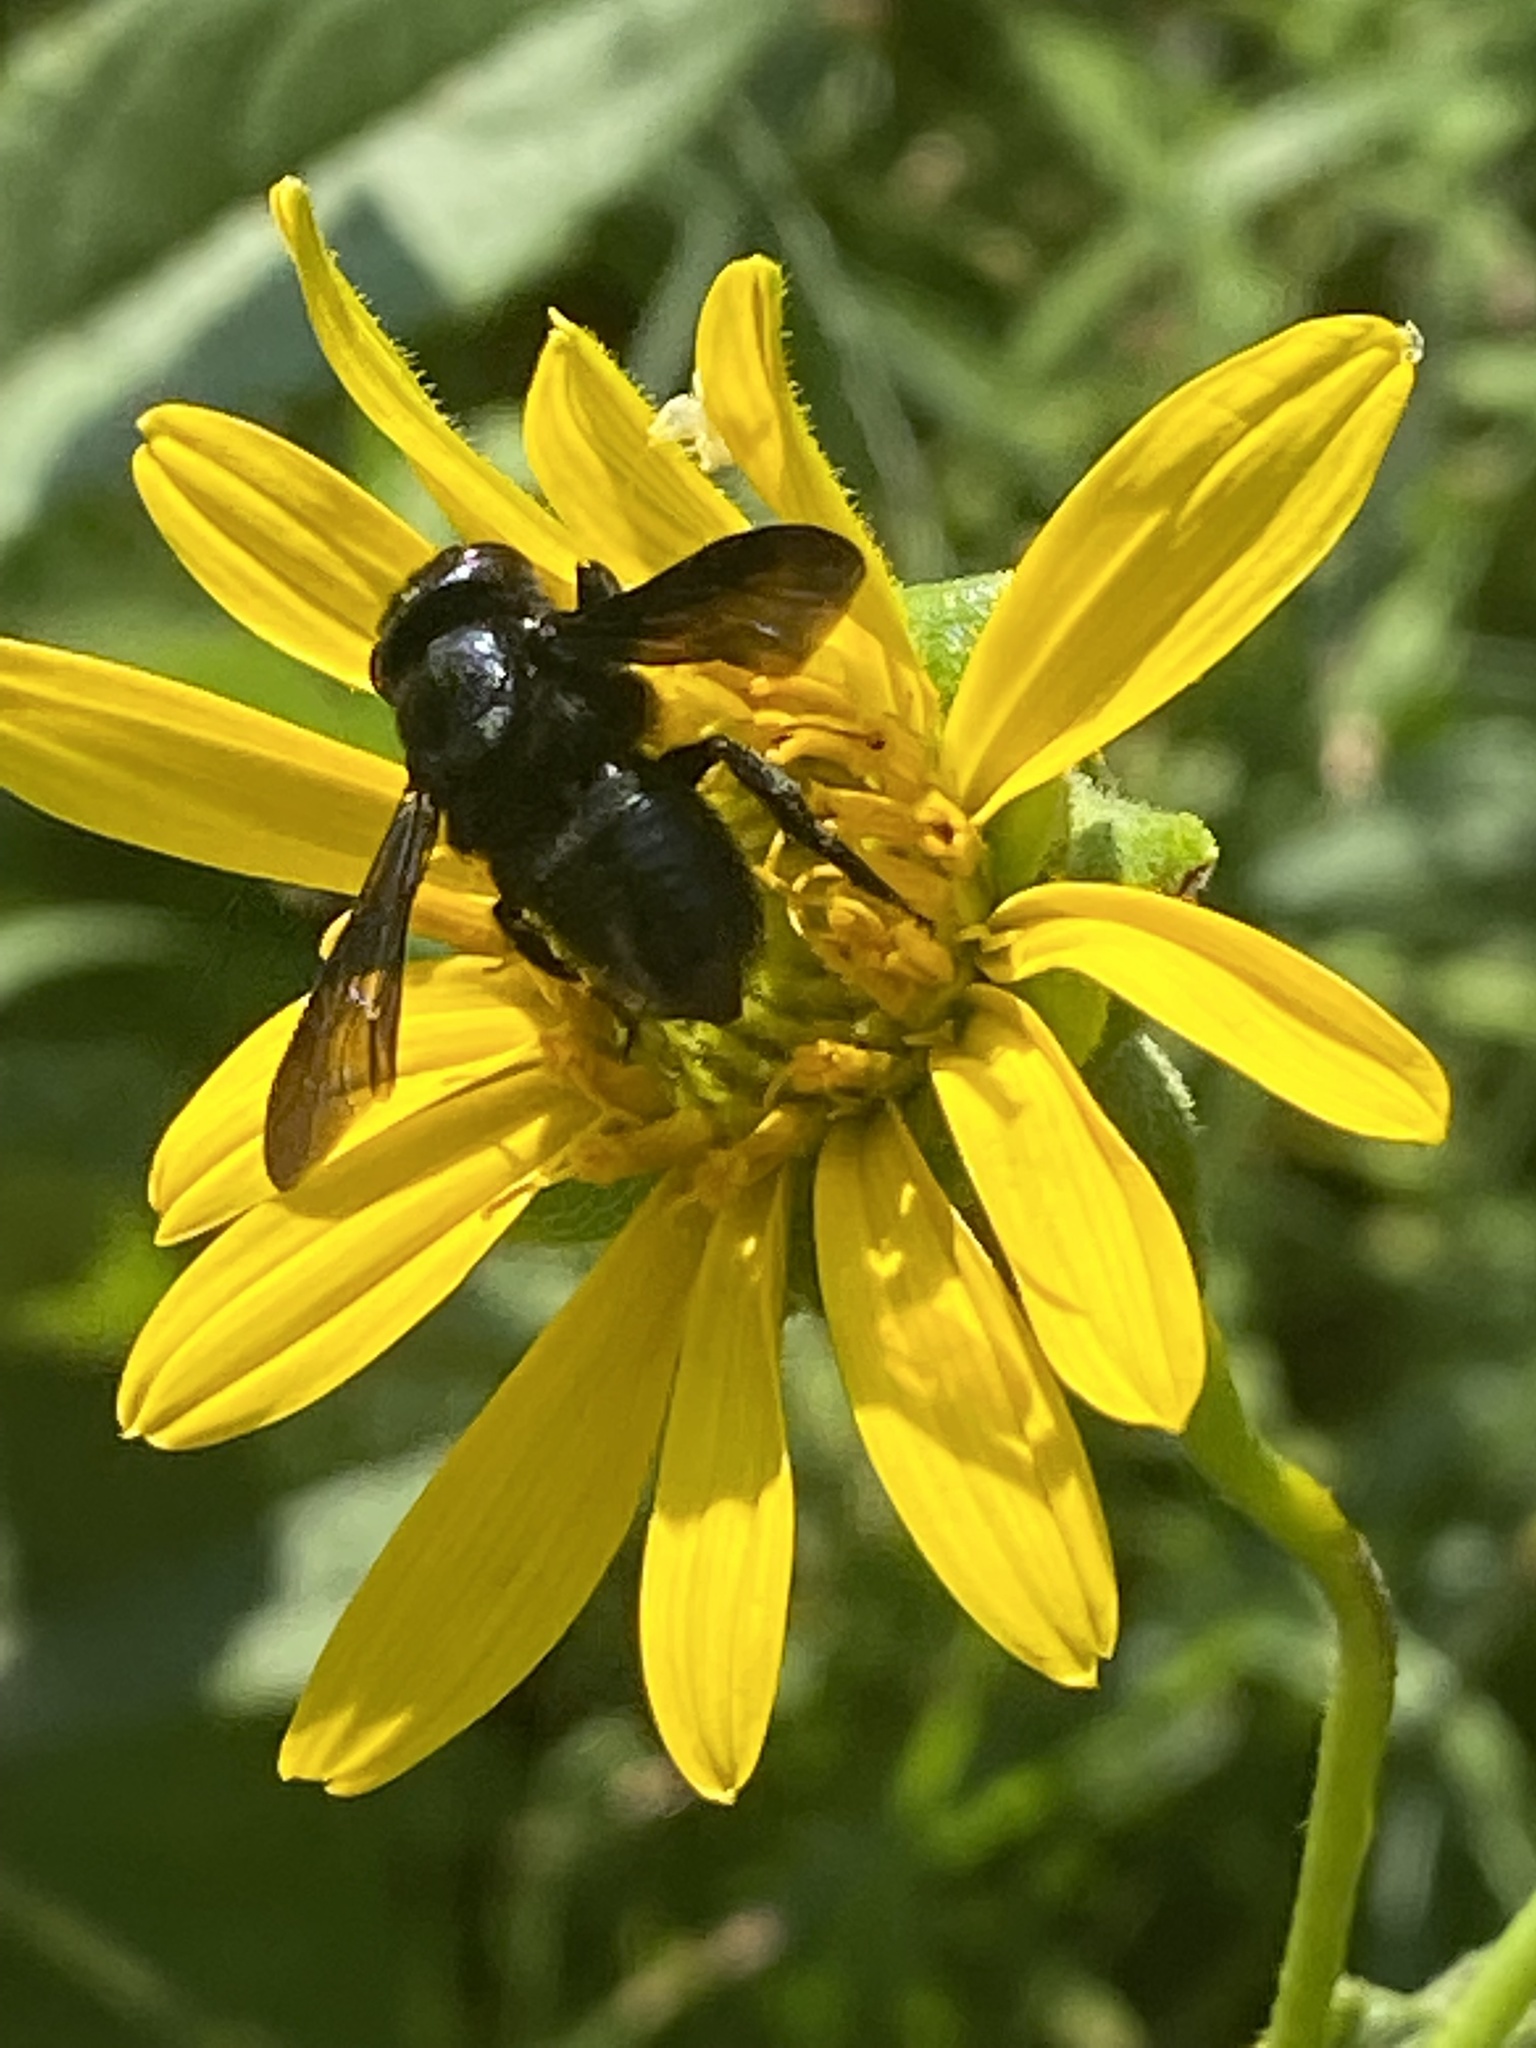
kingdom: Animalia
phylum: Arthropoda
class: Insecta
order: Hymenoptera
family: Megachilidae
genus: Megachile
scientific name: Megachile xylocopoides
